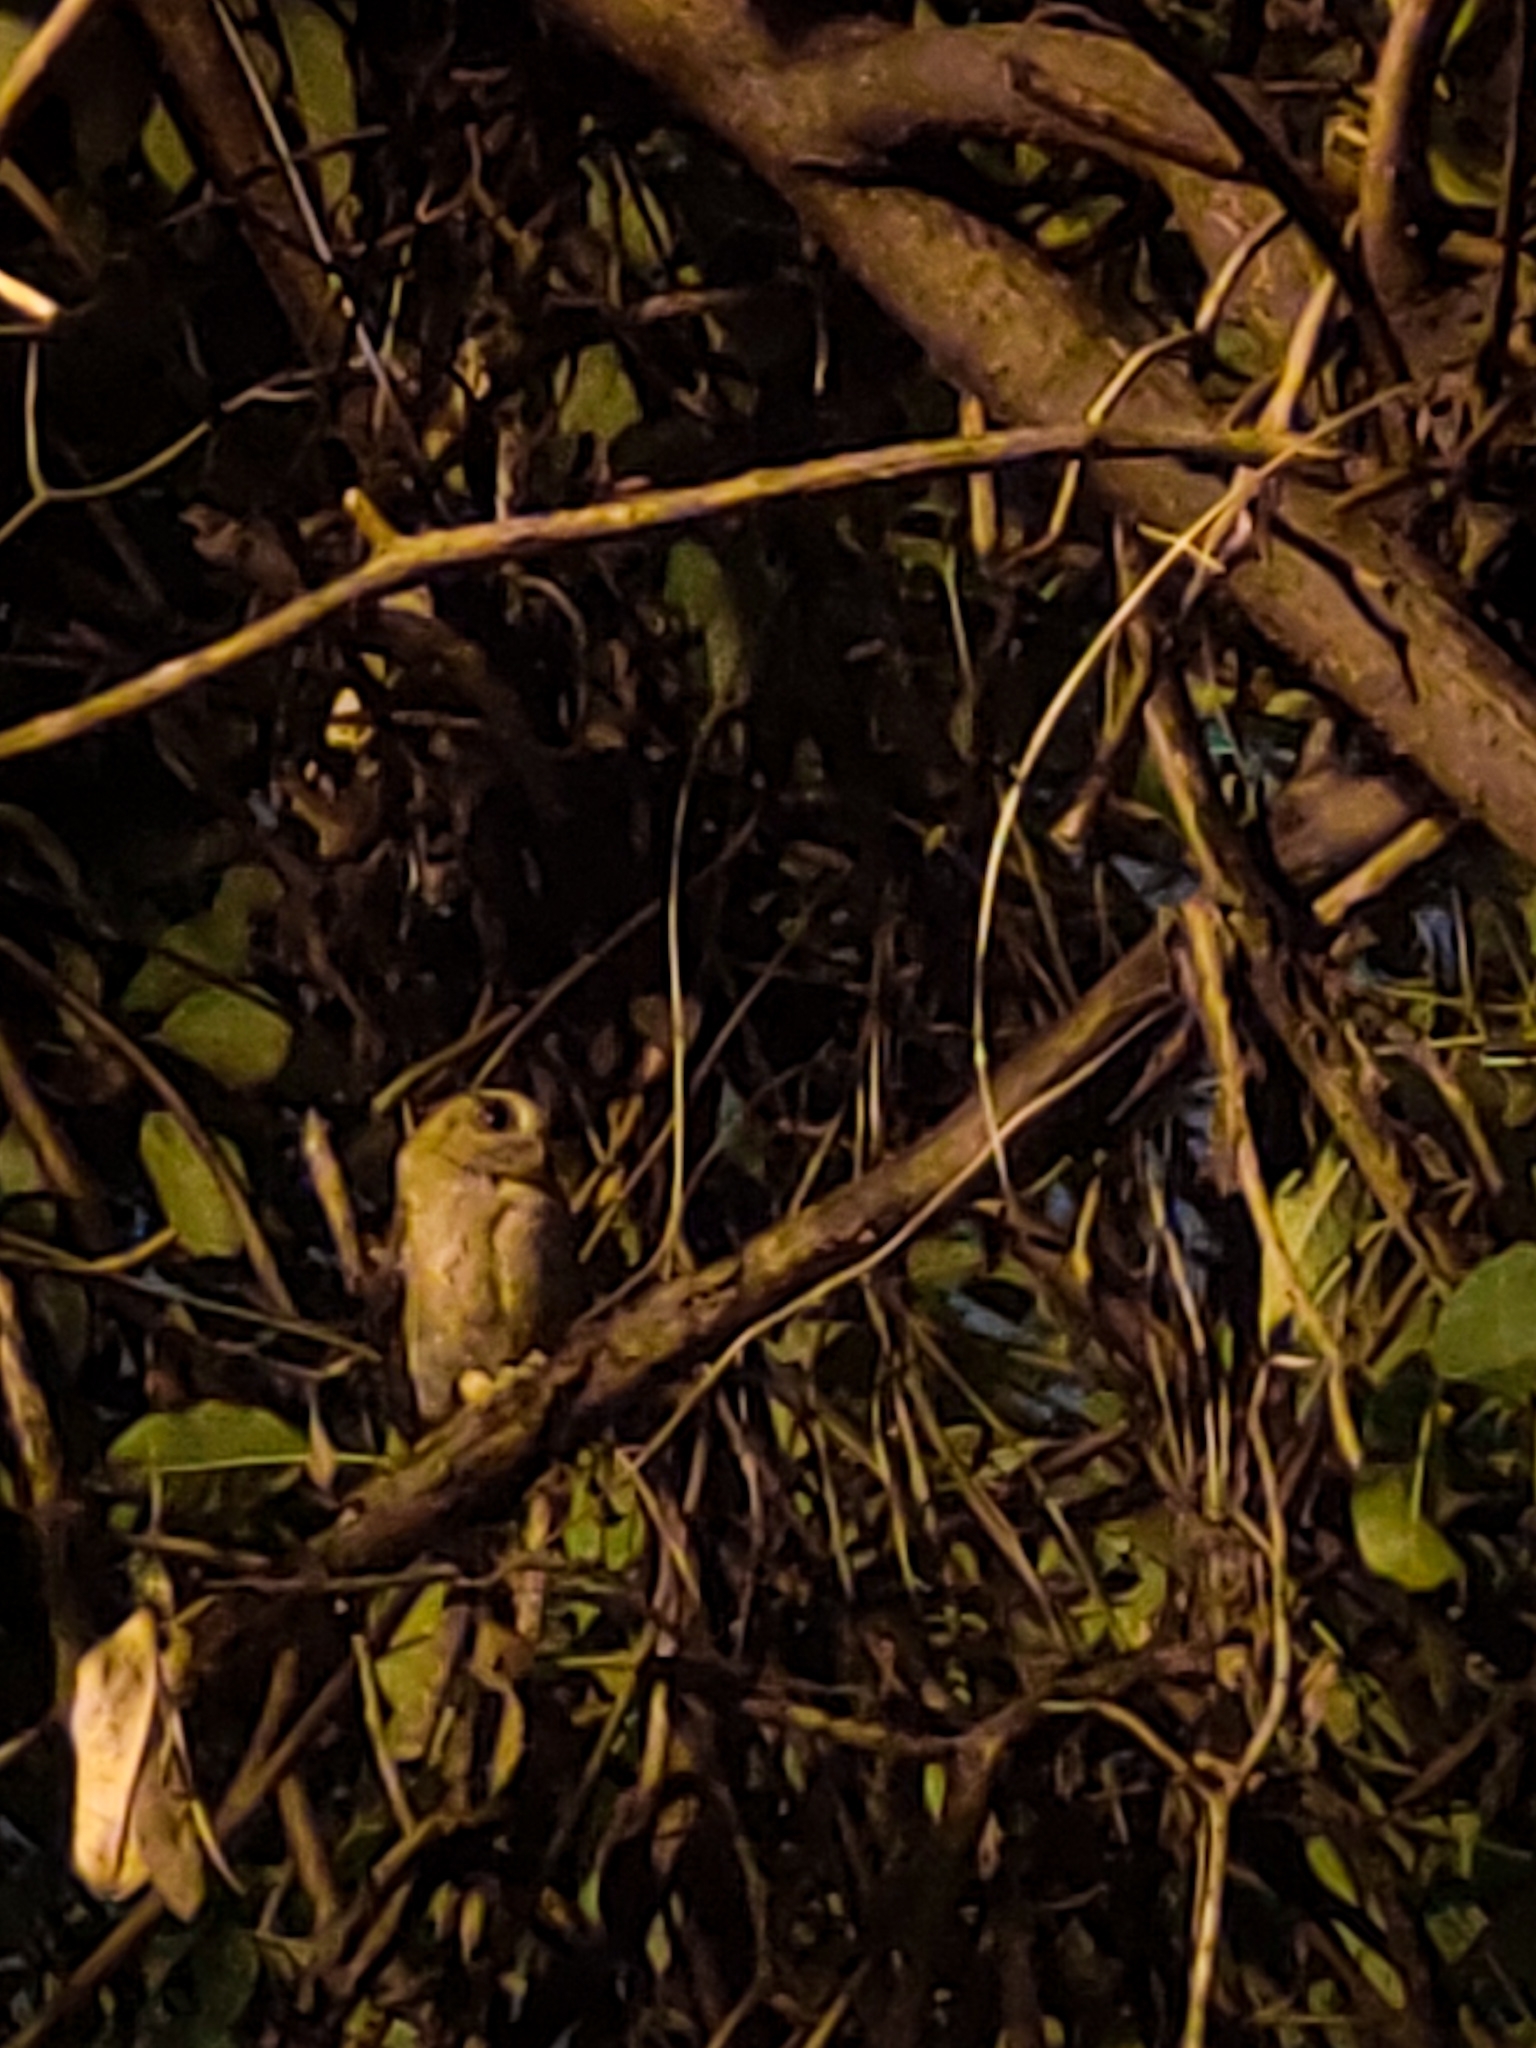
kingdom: Animalia
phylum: Chordata
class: Aves
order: Strigiformes
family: Strigidae
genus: Otus
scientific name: Otus bakkamoena
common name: Indian scops owl
